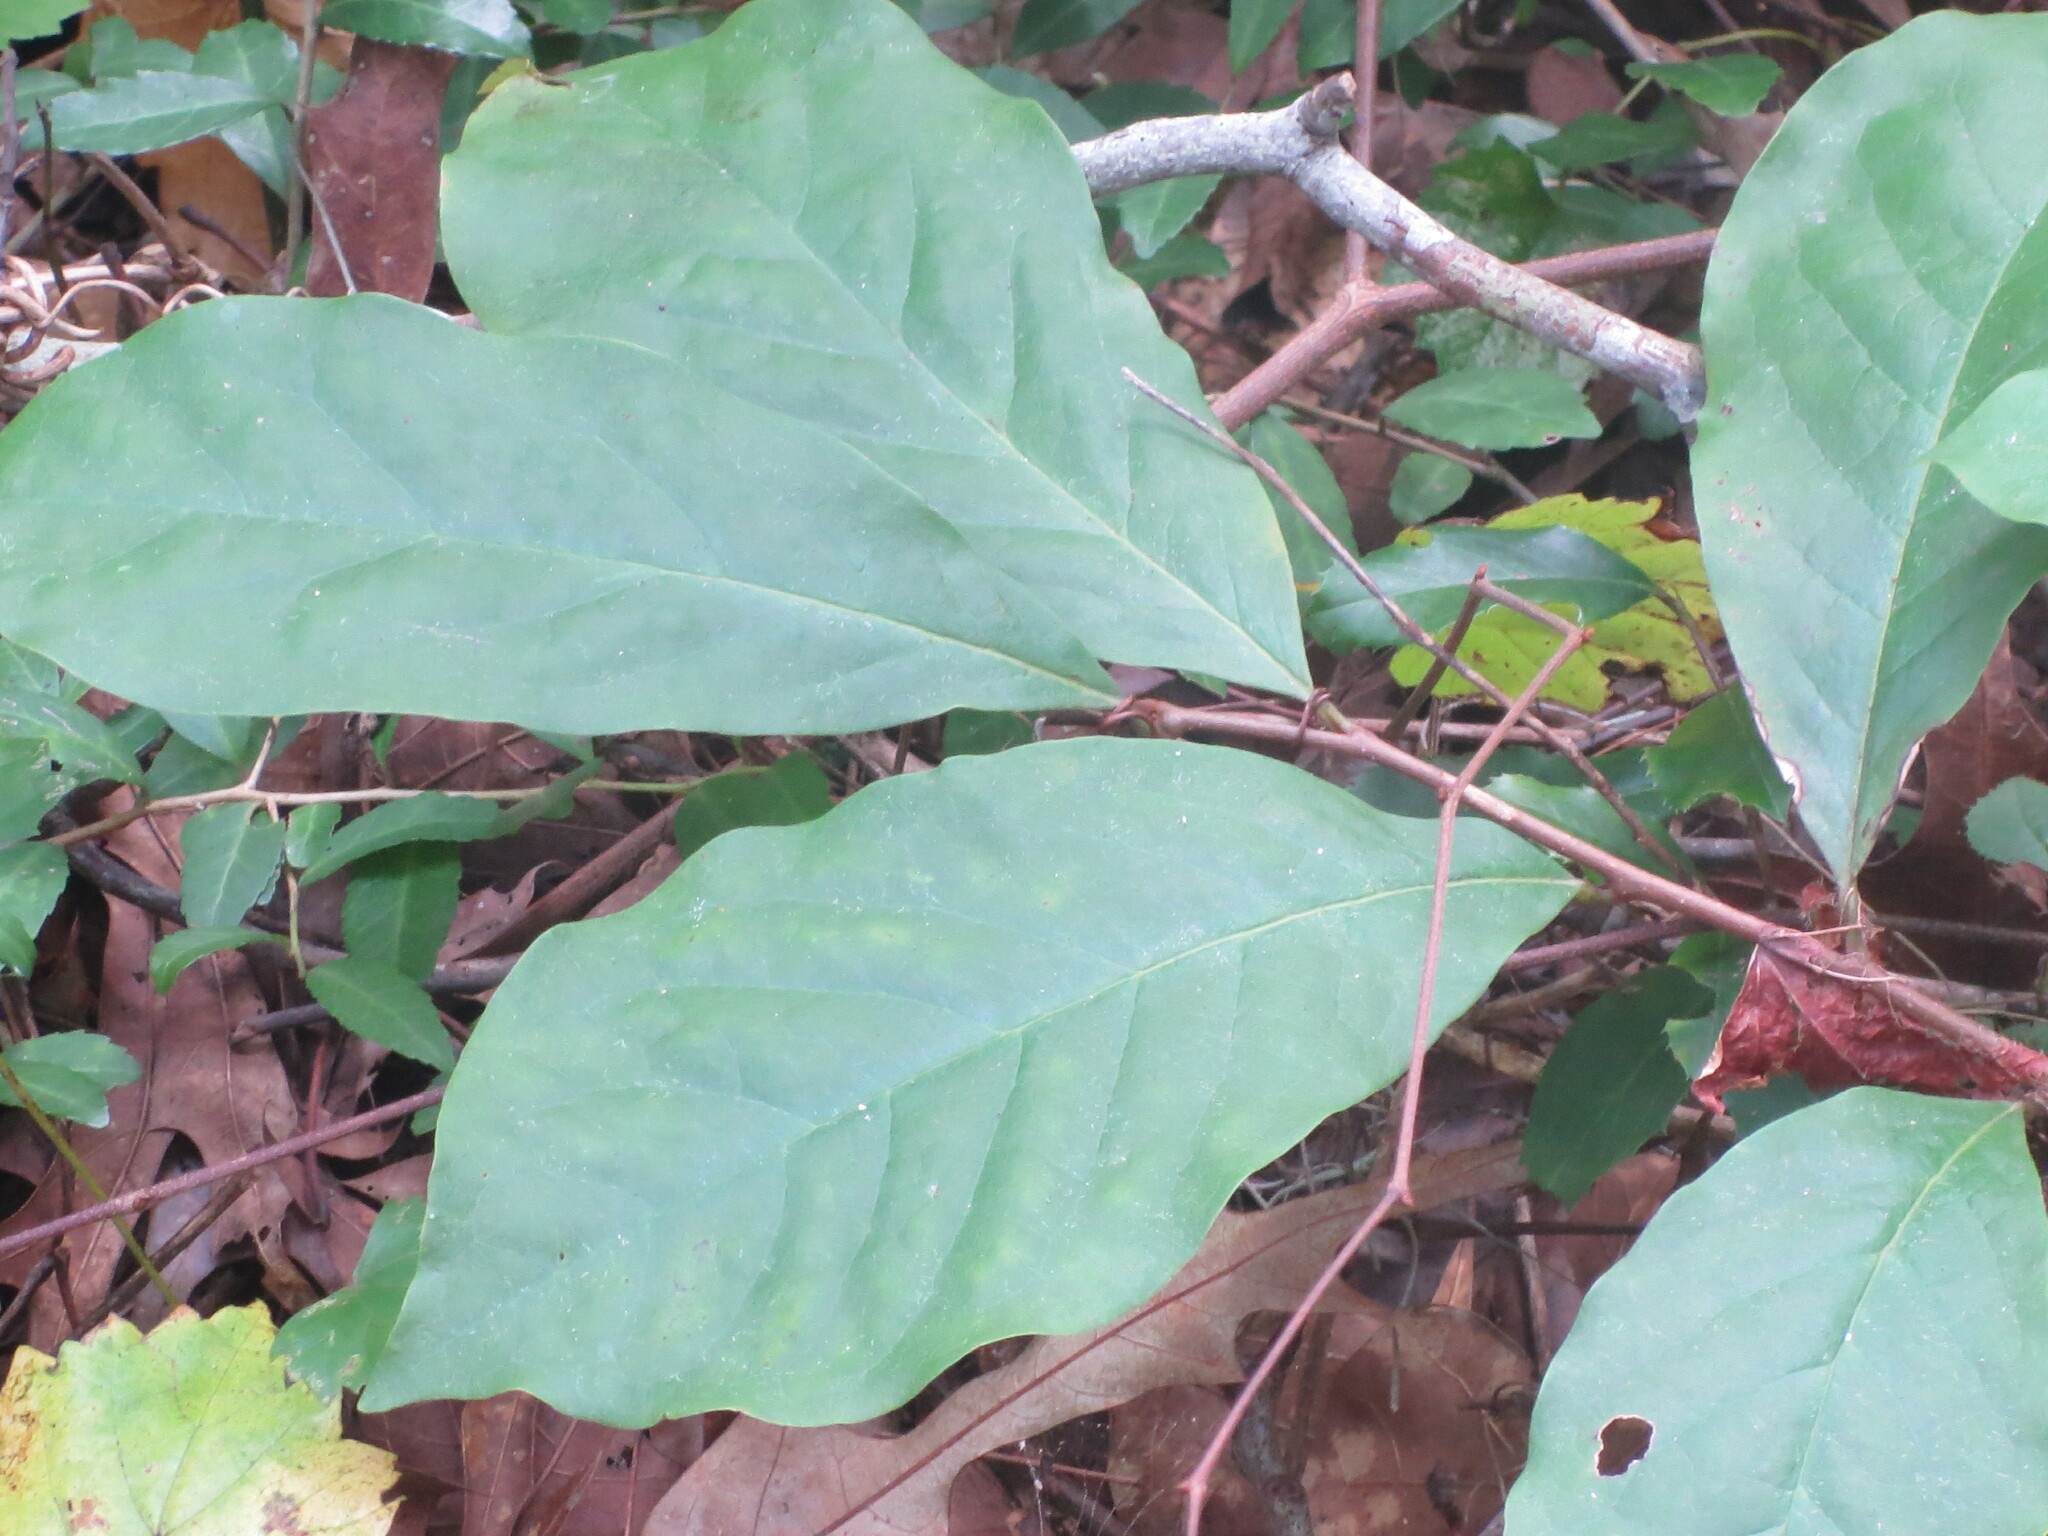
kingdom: Plantae
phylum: Tracheophyta
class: Magnoliopsida
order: Magnoliales
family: Annonaceae
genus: Asimina
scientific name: Asimina parviflora
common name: Dwarf pawpaw
